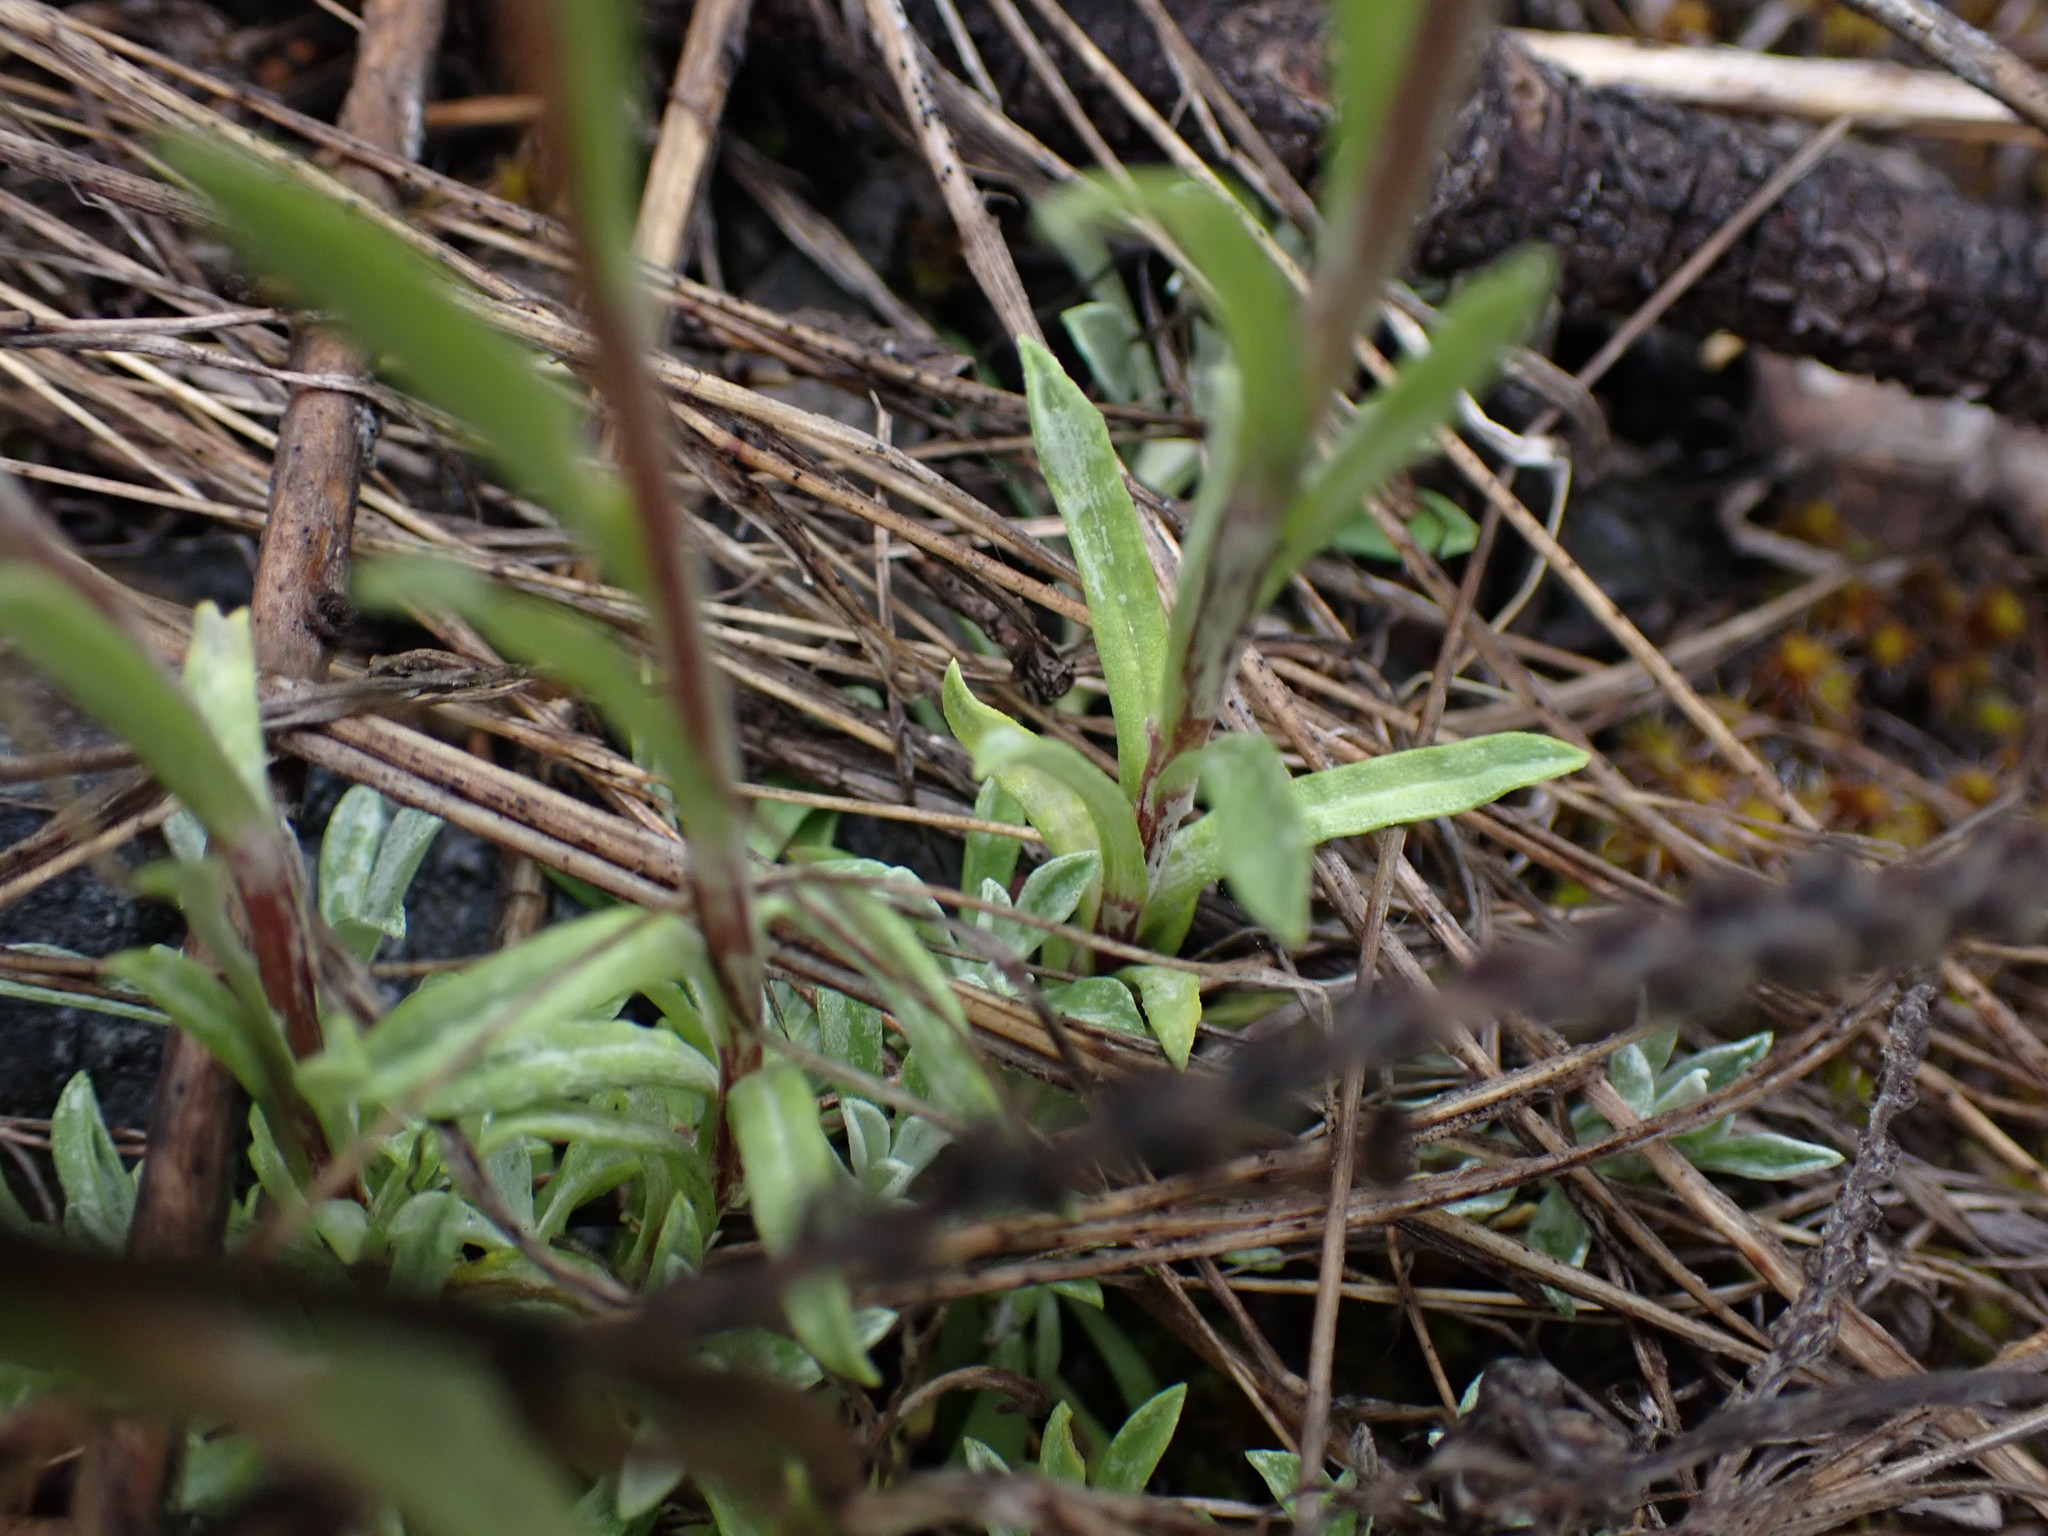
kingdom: Plantae
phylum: Tracheophyta
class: Magnoliopsida
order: Asterales
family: Asteraceae
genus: Antennaria
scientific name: Antennaria rosea
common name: Rosy pussytoes
